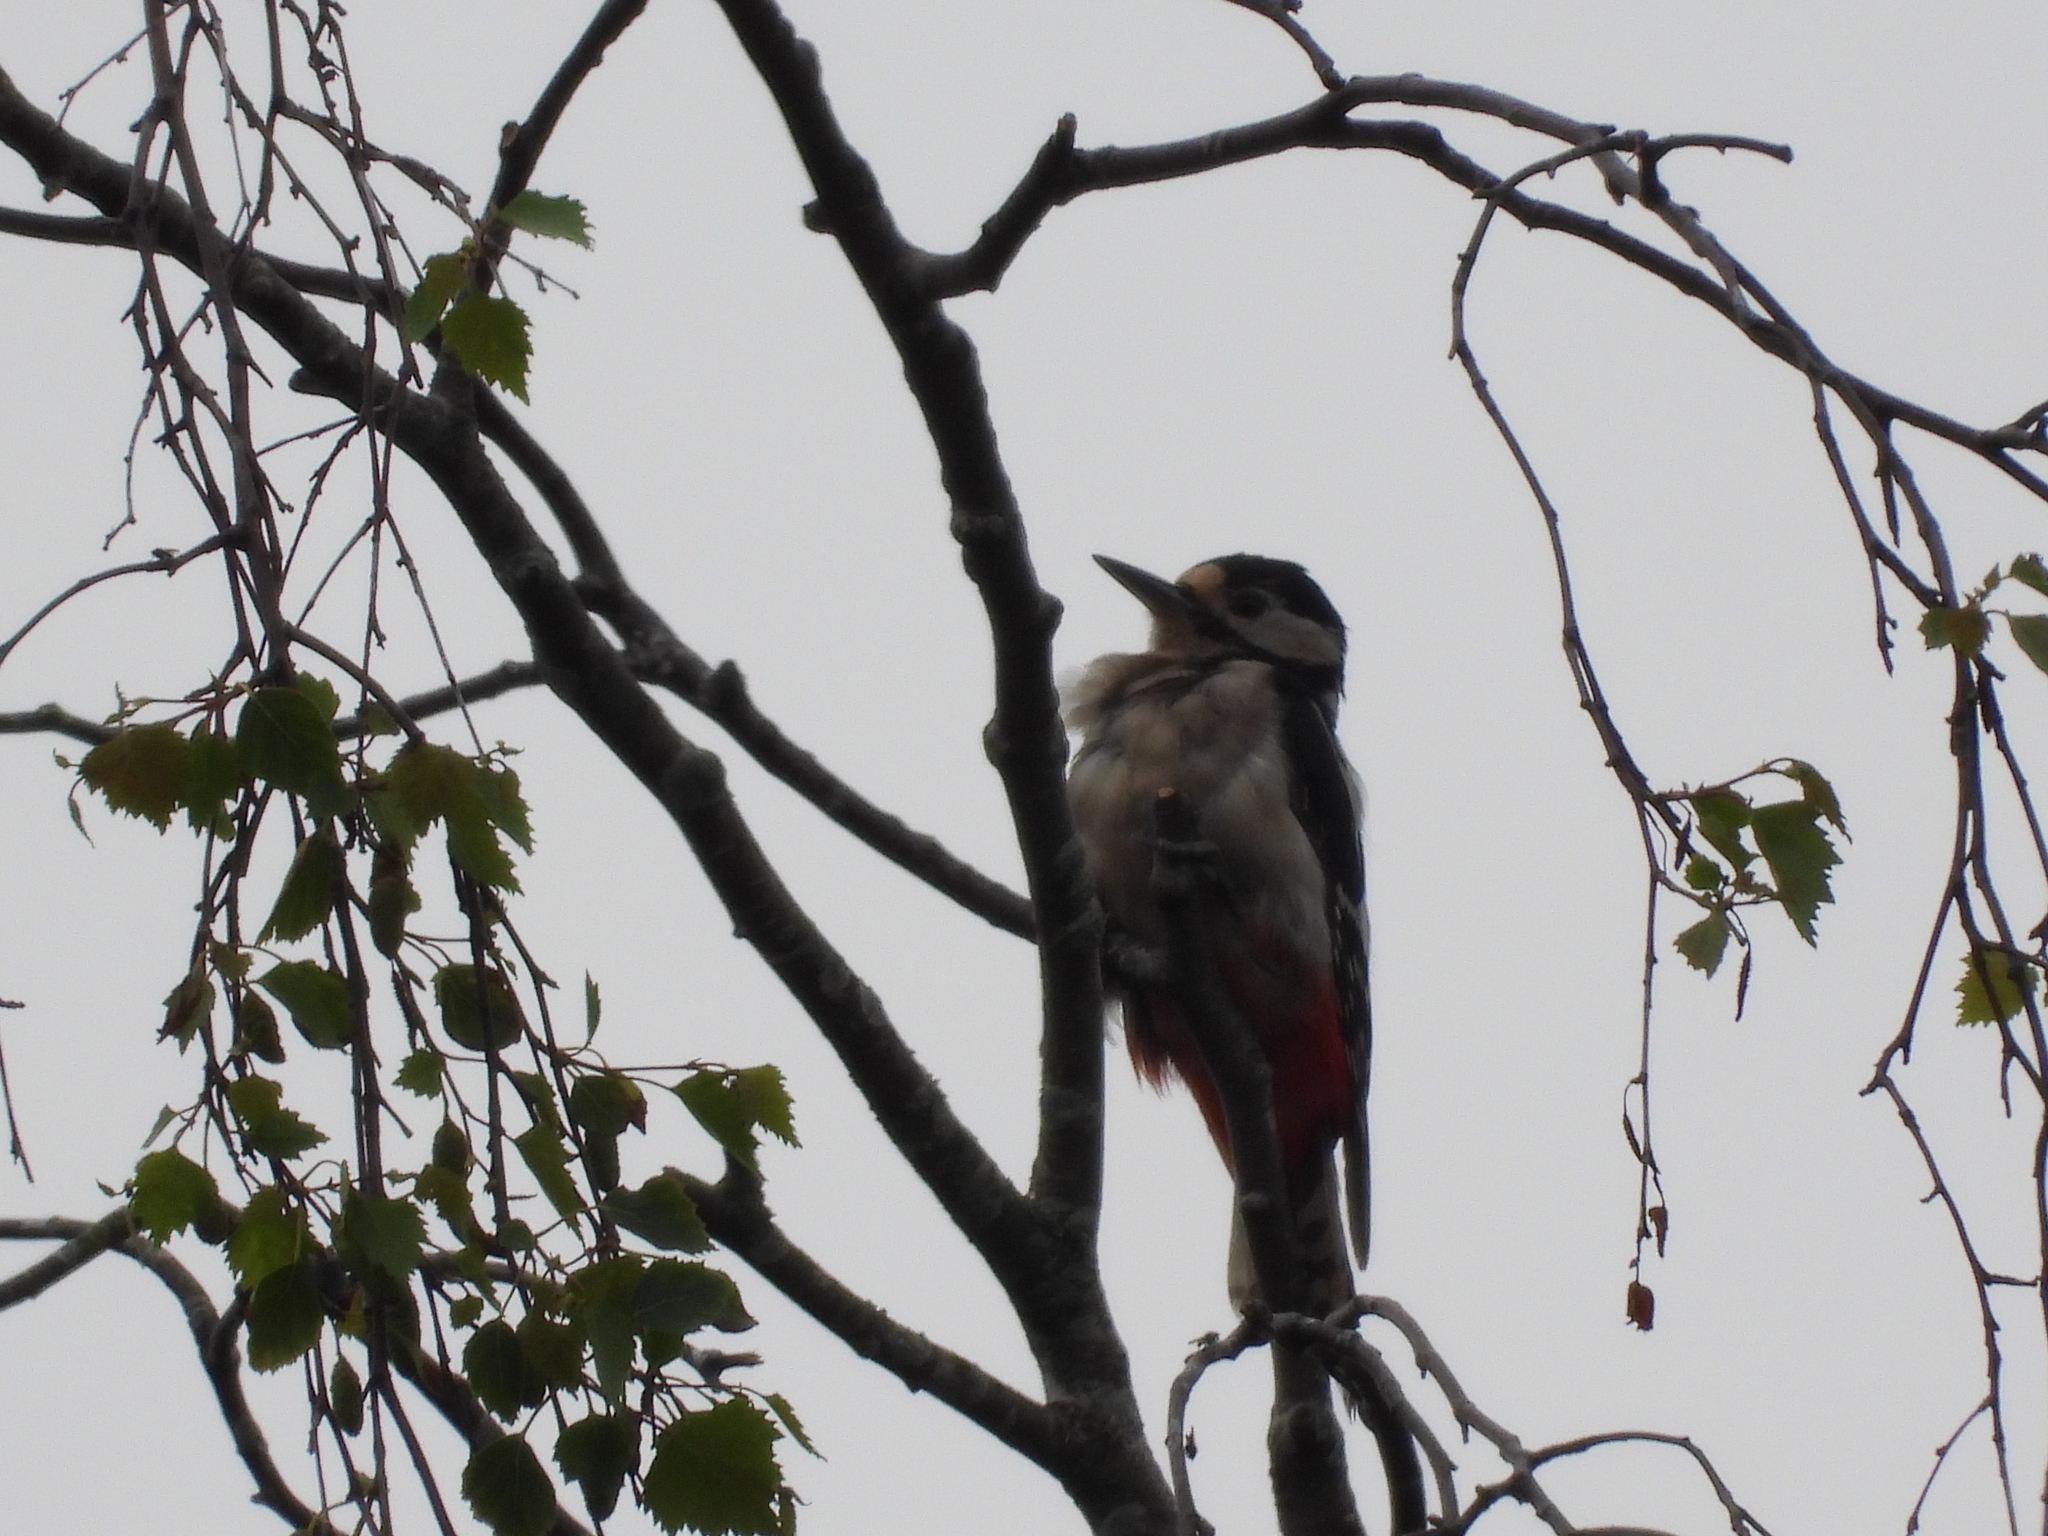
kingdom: Animalia
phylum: Chordata
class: Aves
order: Piciformes
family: Picidae
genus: Dendrocopos
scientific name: Dendrocopos major
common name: Great spotted woodpecker
